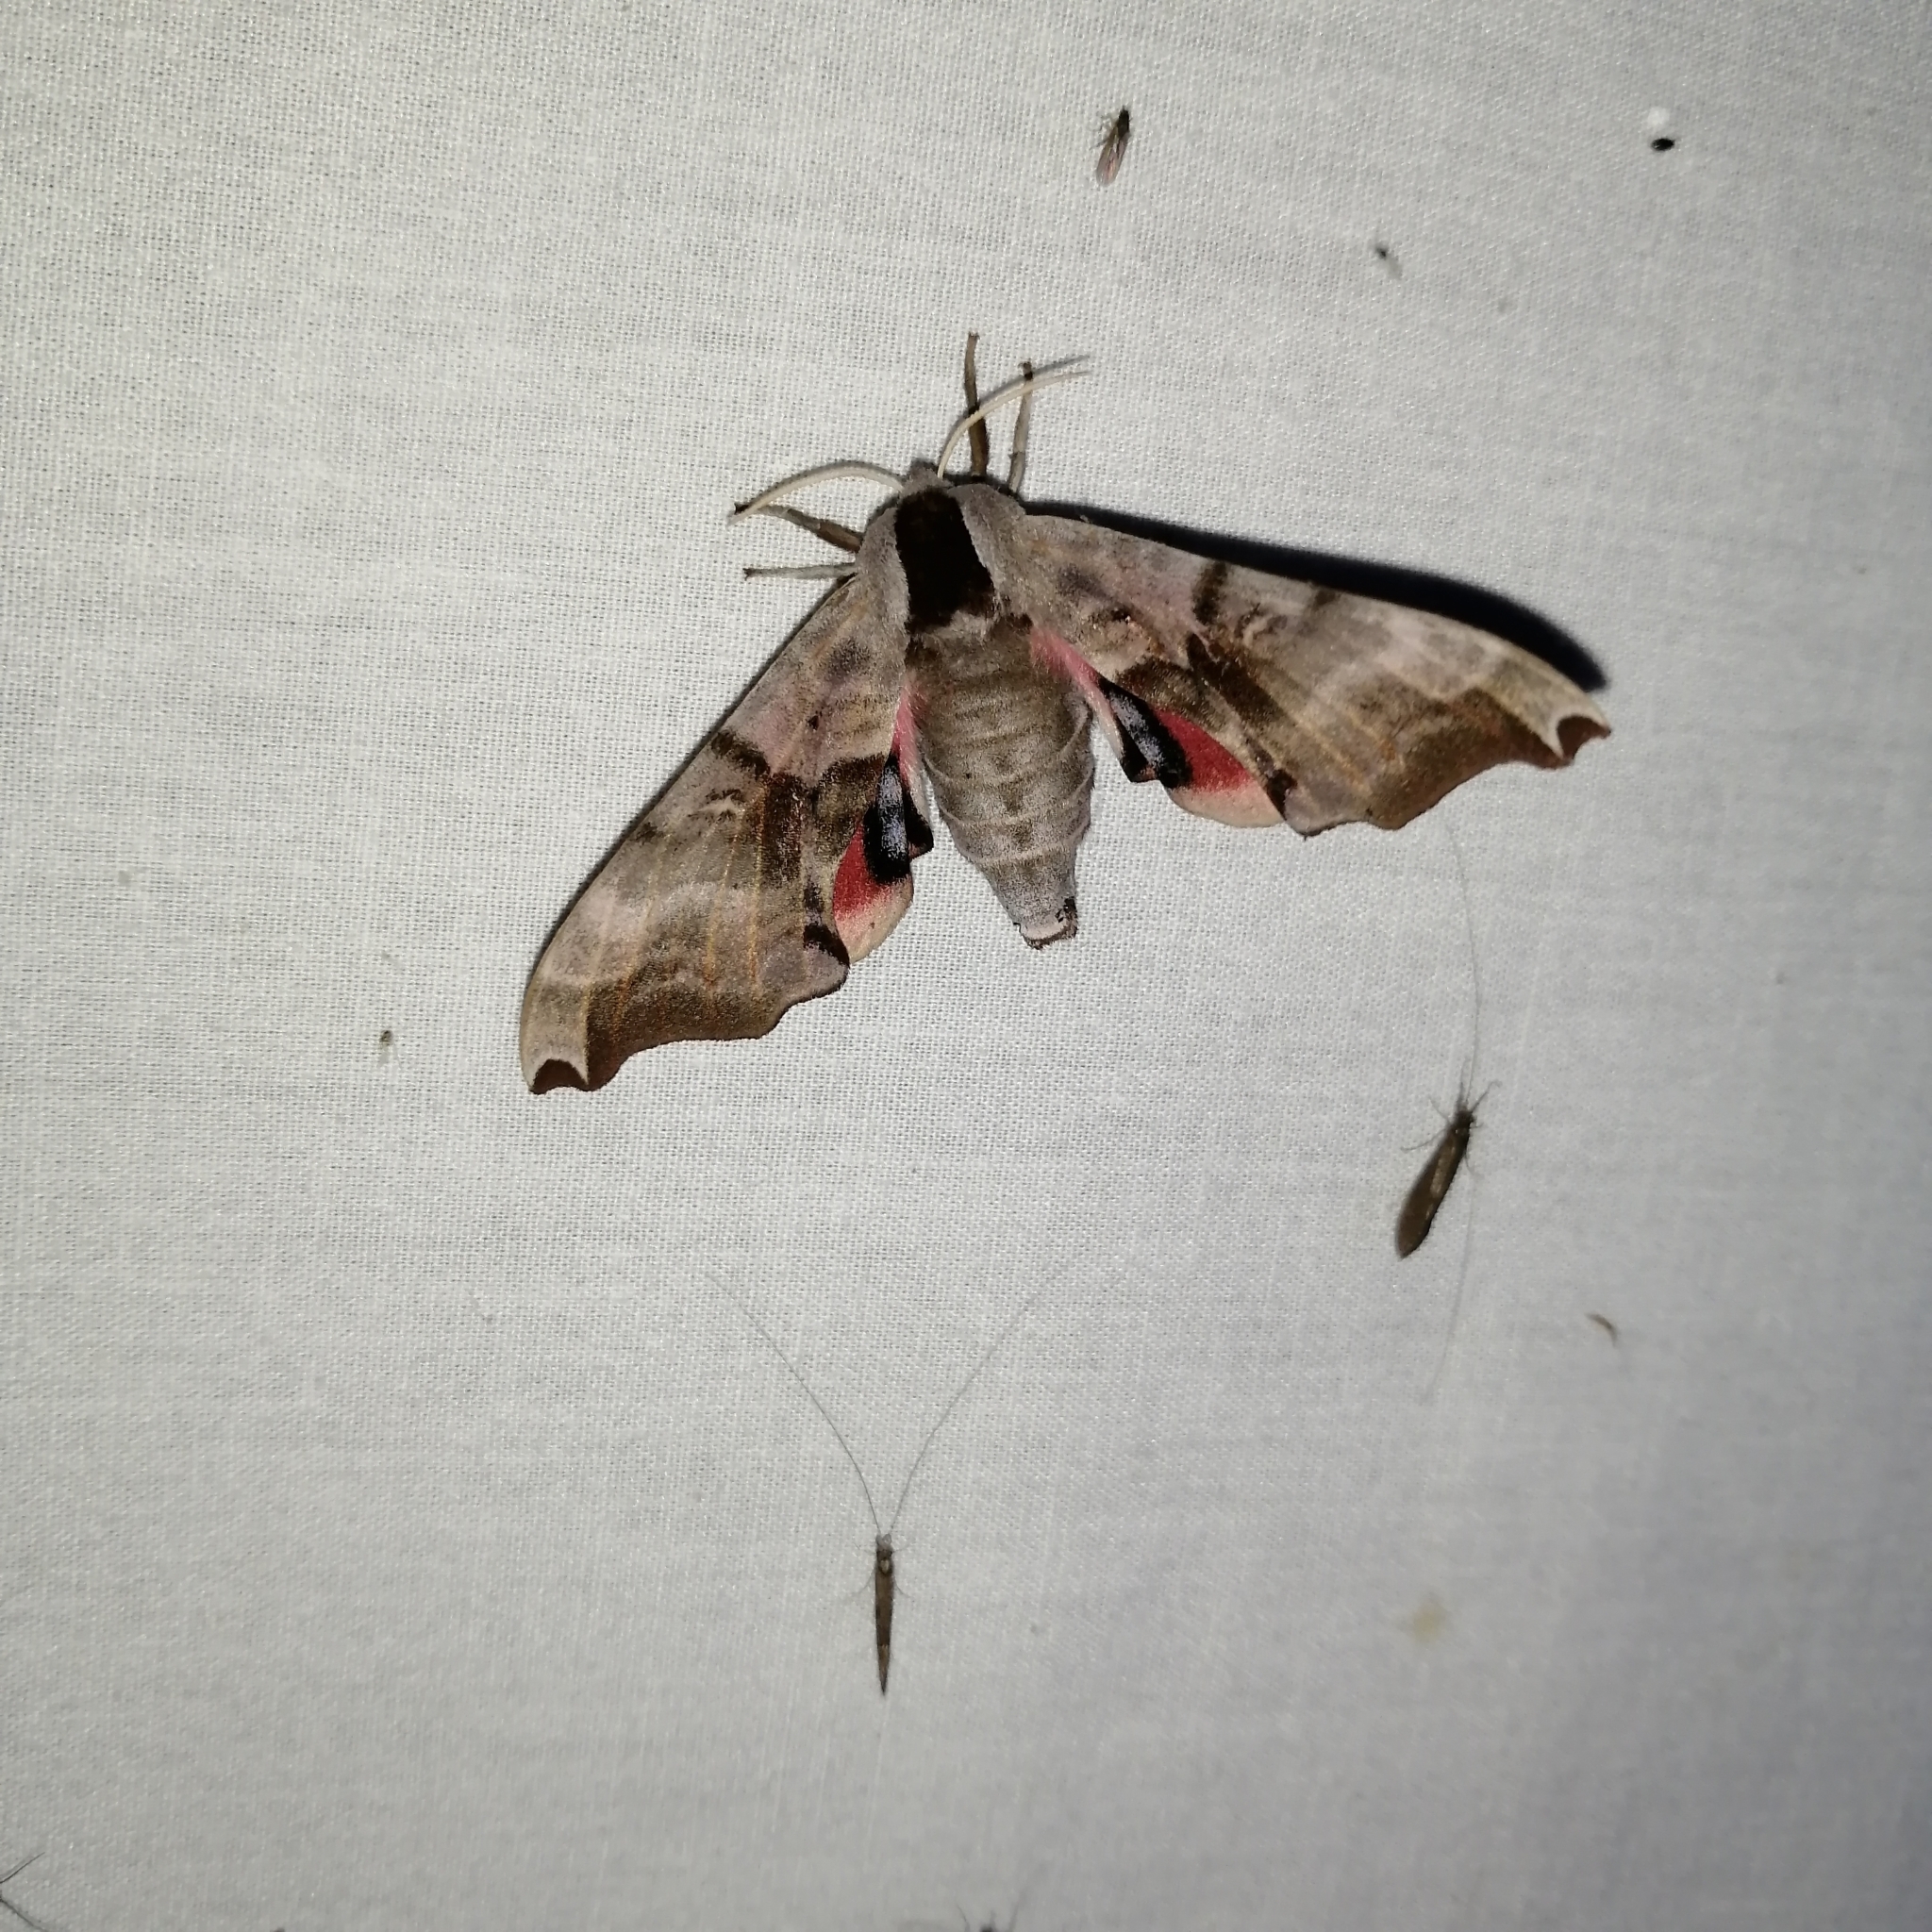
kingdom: Animalia
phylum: Arthropoda
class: Insecta
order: Lepidoptera
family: Sphingidae
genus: Smerinthus
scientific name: Smerinthus jamaicensis
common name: Twin spotted sphinx
